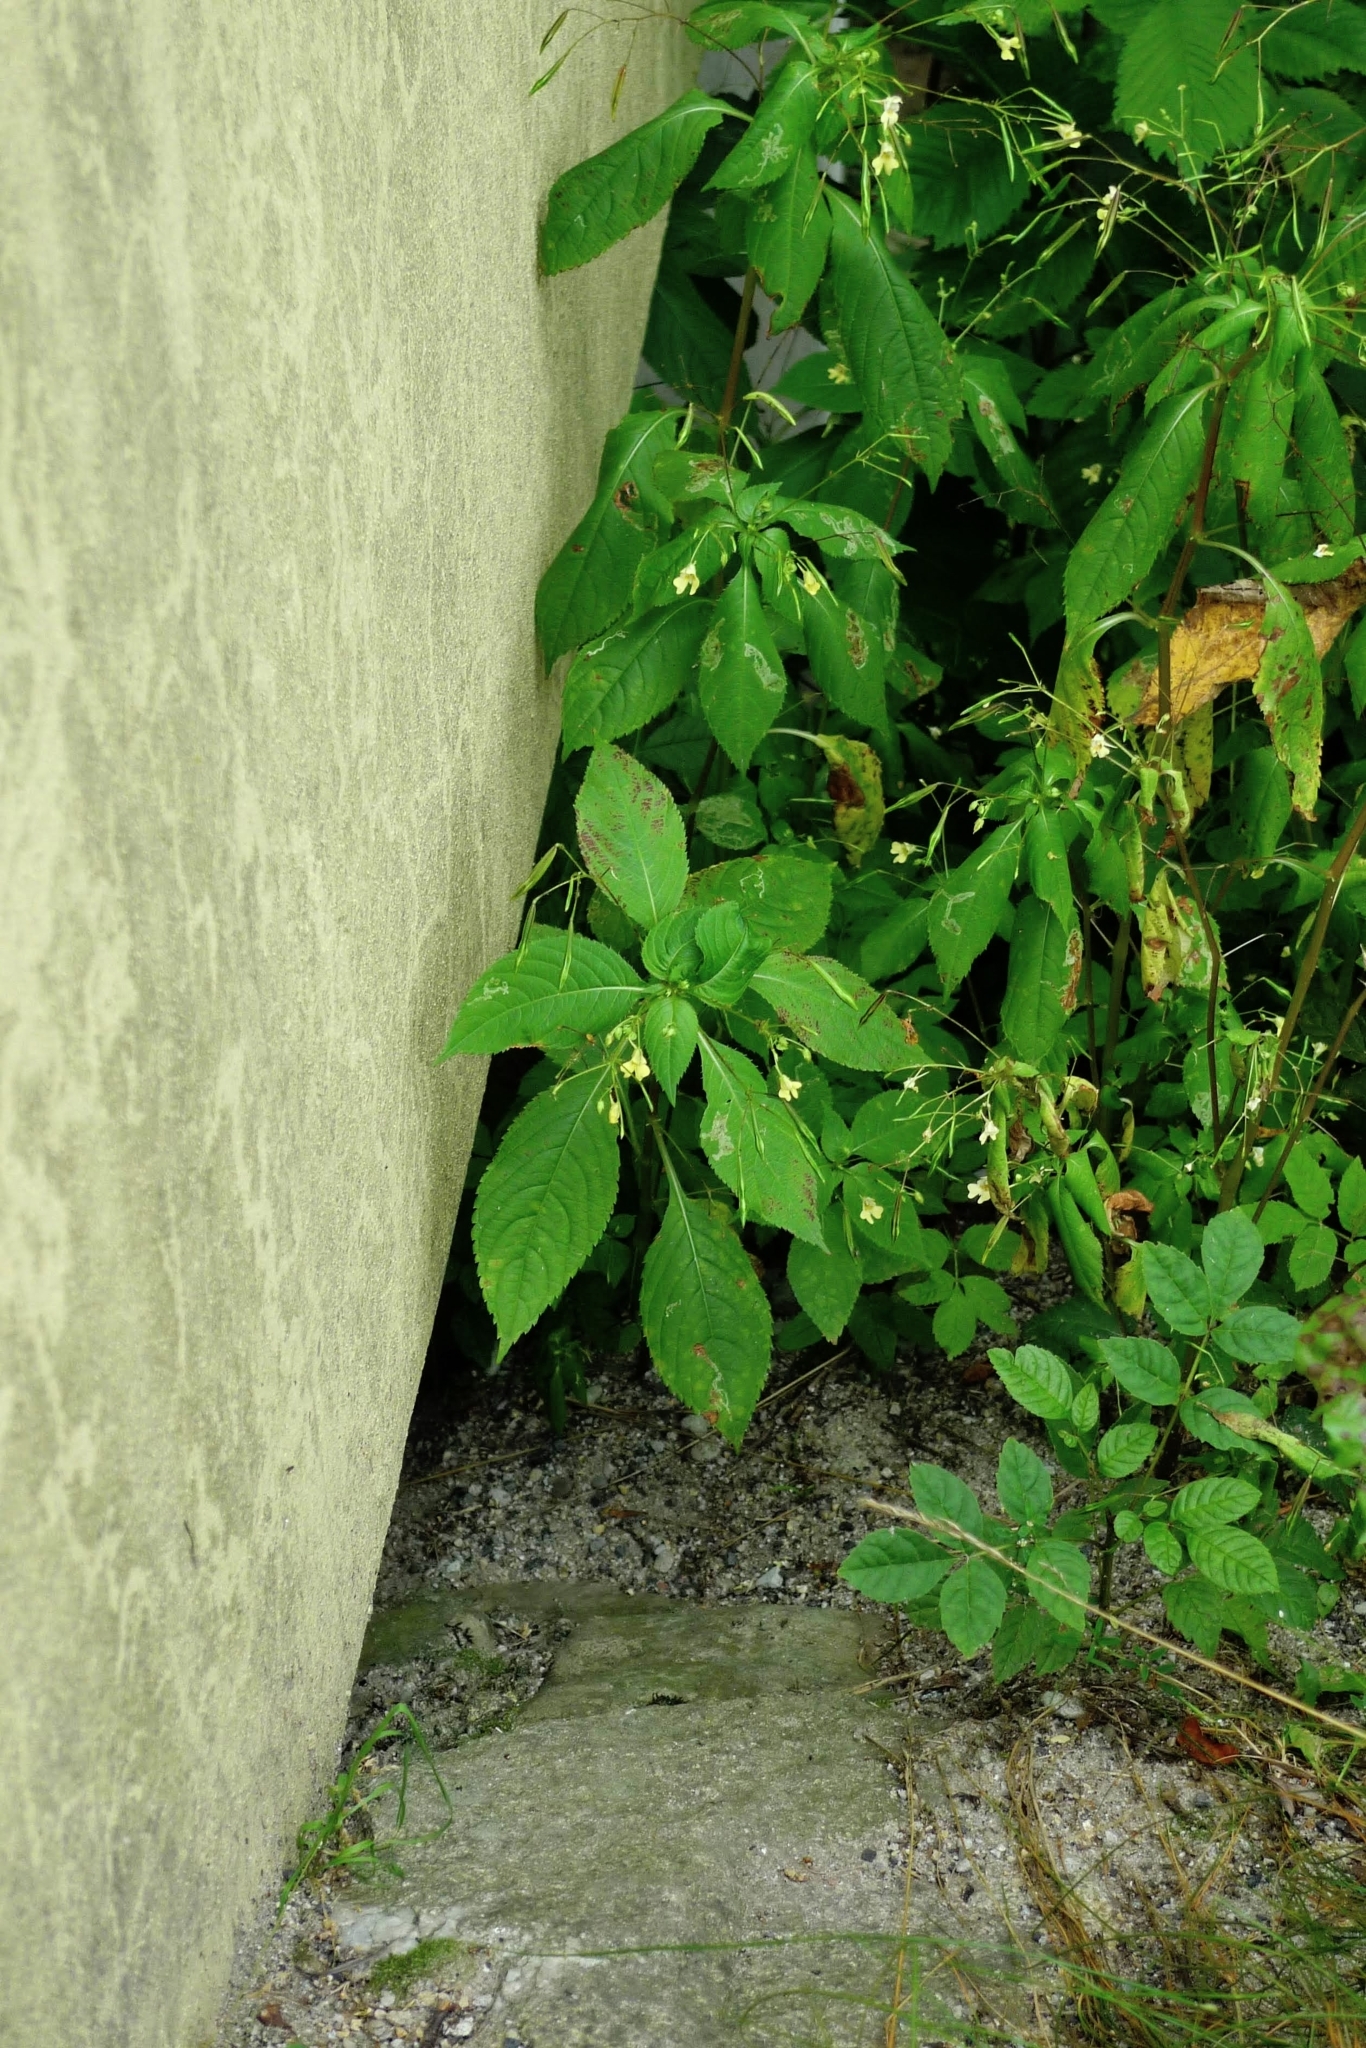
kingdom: Plantae
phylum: Tracheophyta
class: Magnoliopsida
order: Ericales
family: Balsaminaceae
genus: Impatiens
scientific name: Impatiens parviflora
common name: Small balsam
